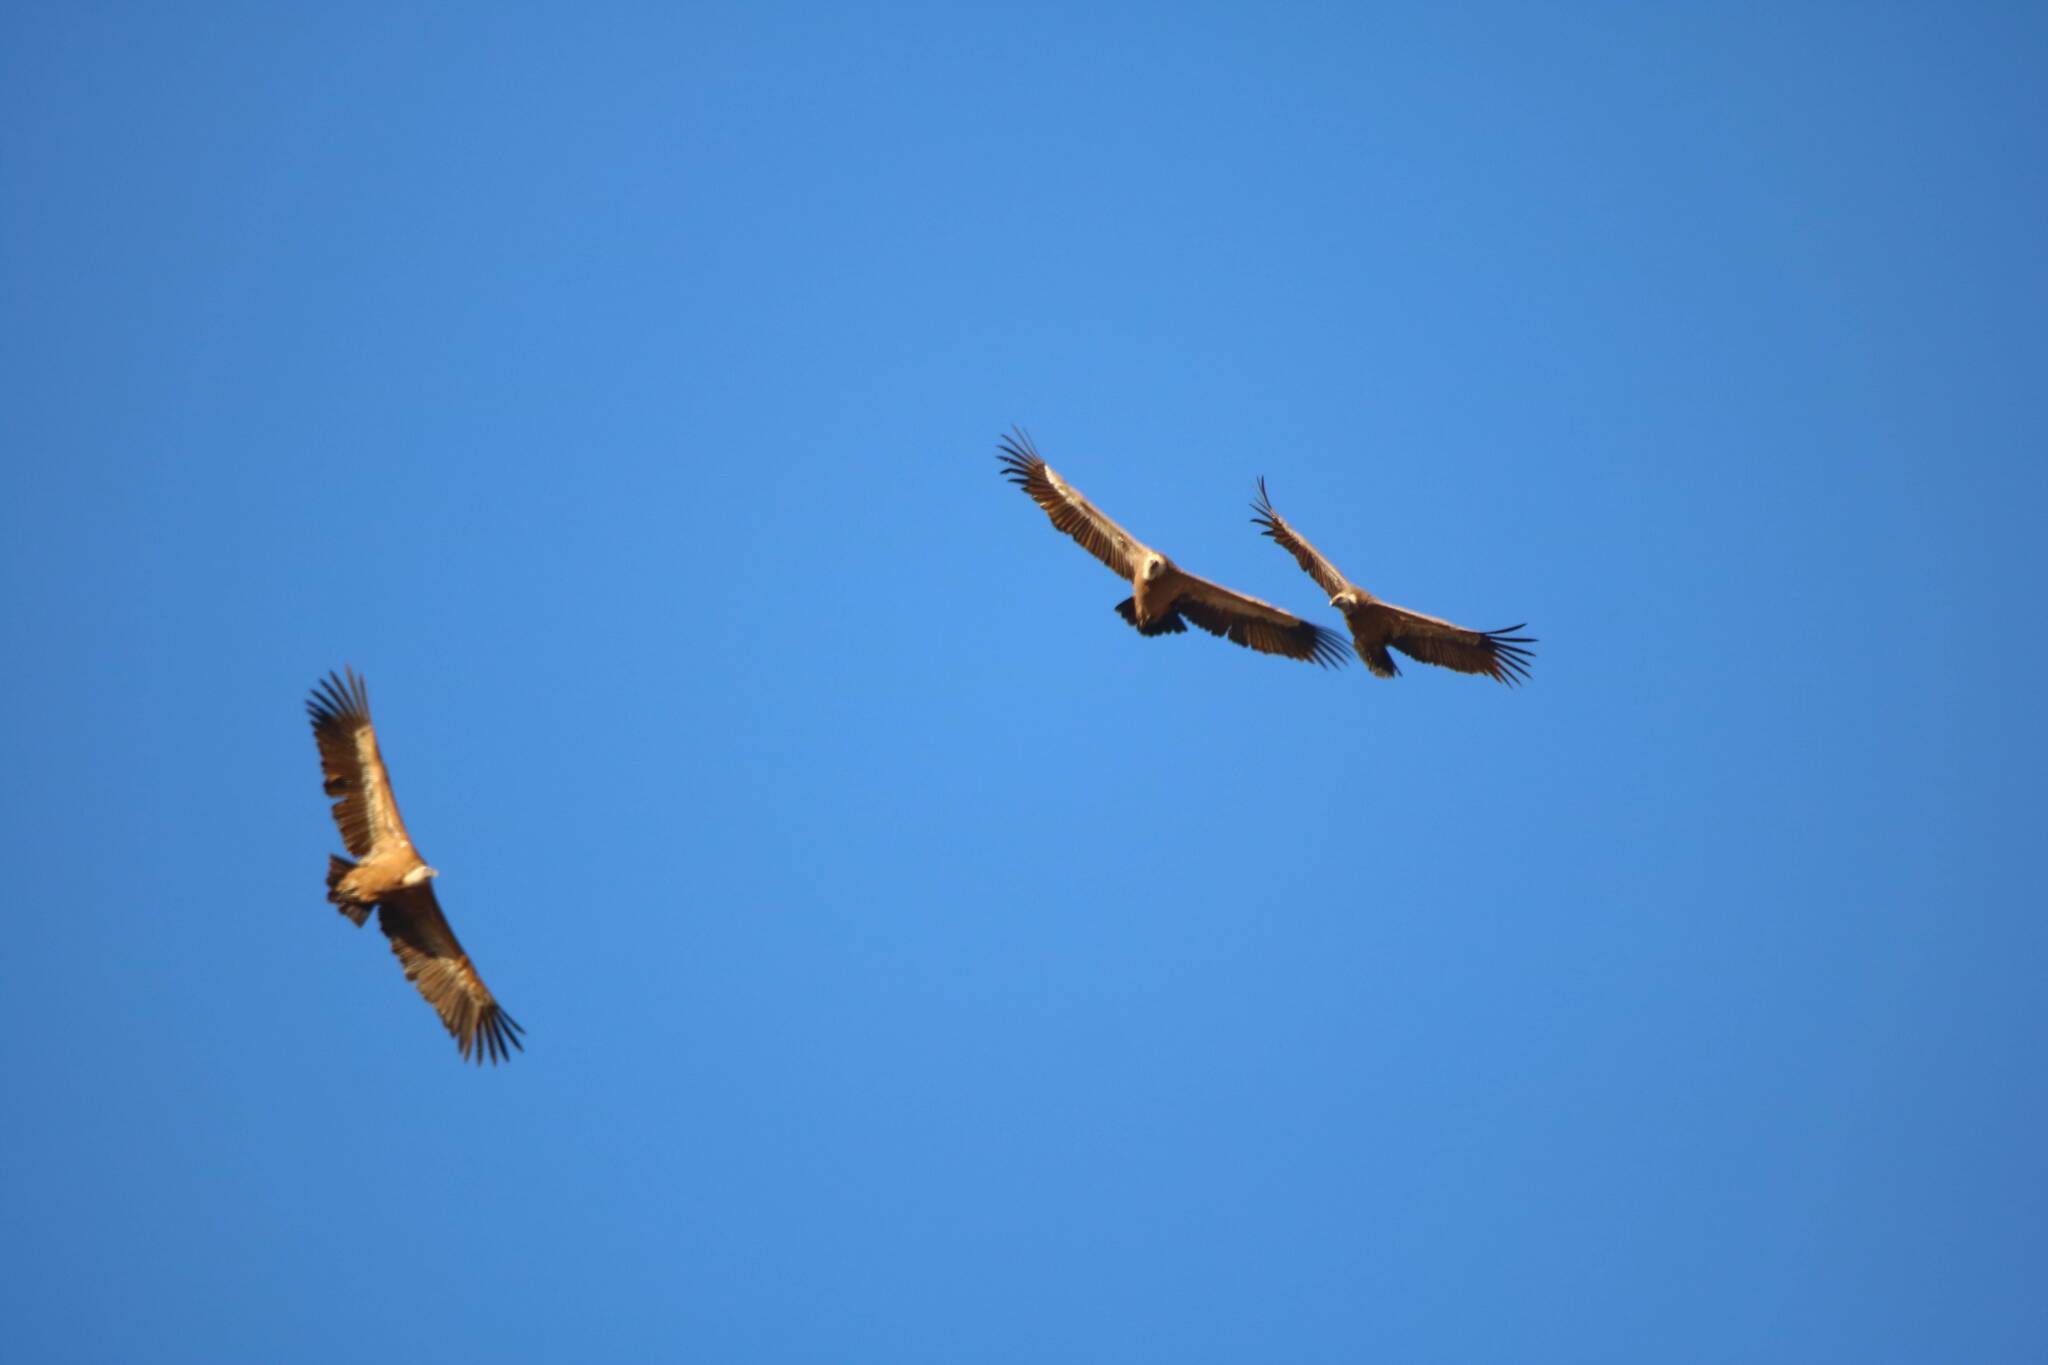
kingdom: Animalia
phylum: Chordata
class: Aves
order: Accipitriformes
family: Accipitridae
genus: Gyps
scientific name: Gyps fulvus
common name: Griffon vulture
